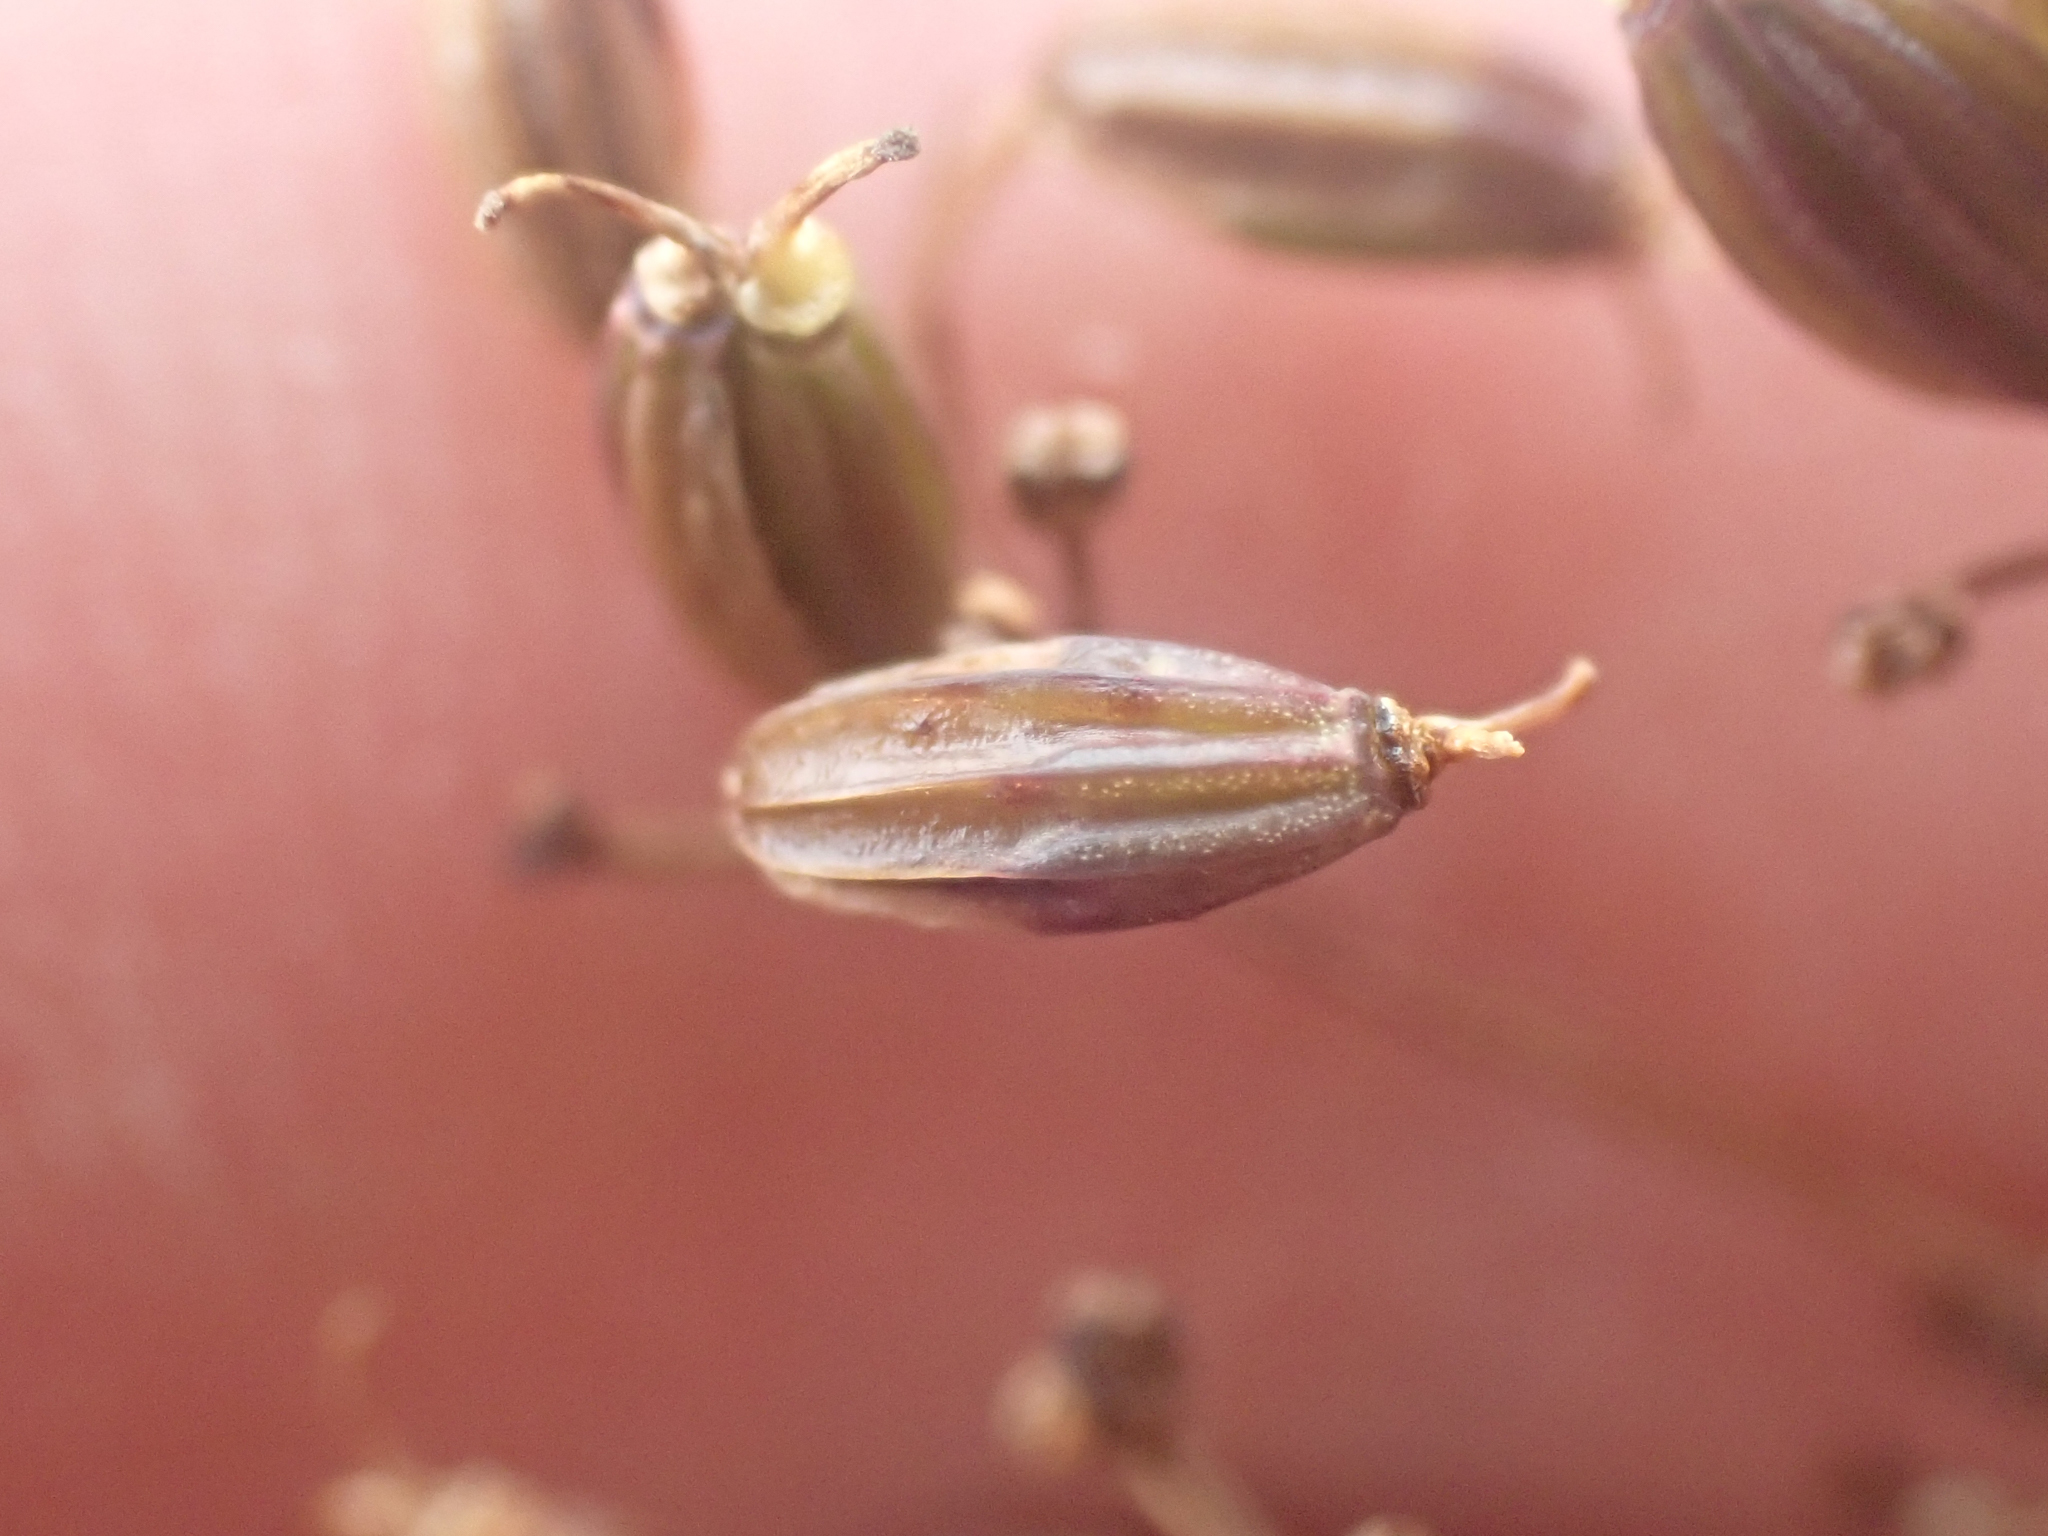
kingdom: Plantae
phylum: Tracheophyta
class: Magnoliopsida
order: Apiales
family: Apiaceae
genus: Ottoa
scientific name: Ottoa oenanthoides
